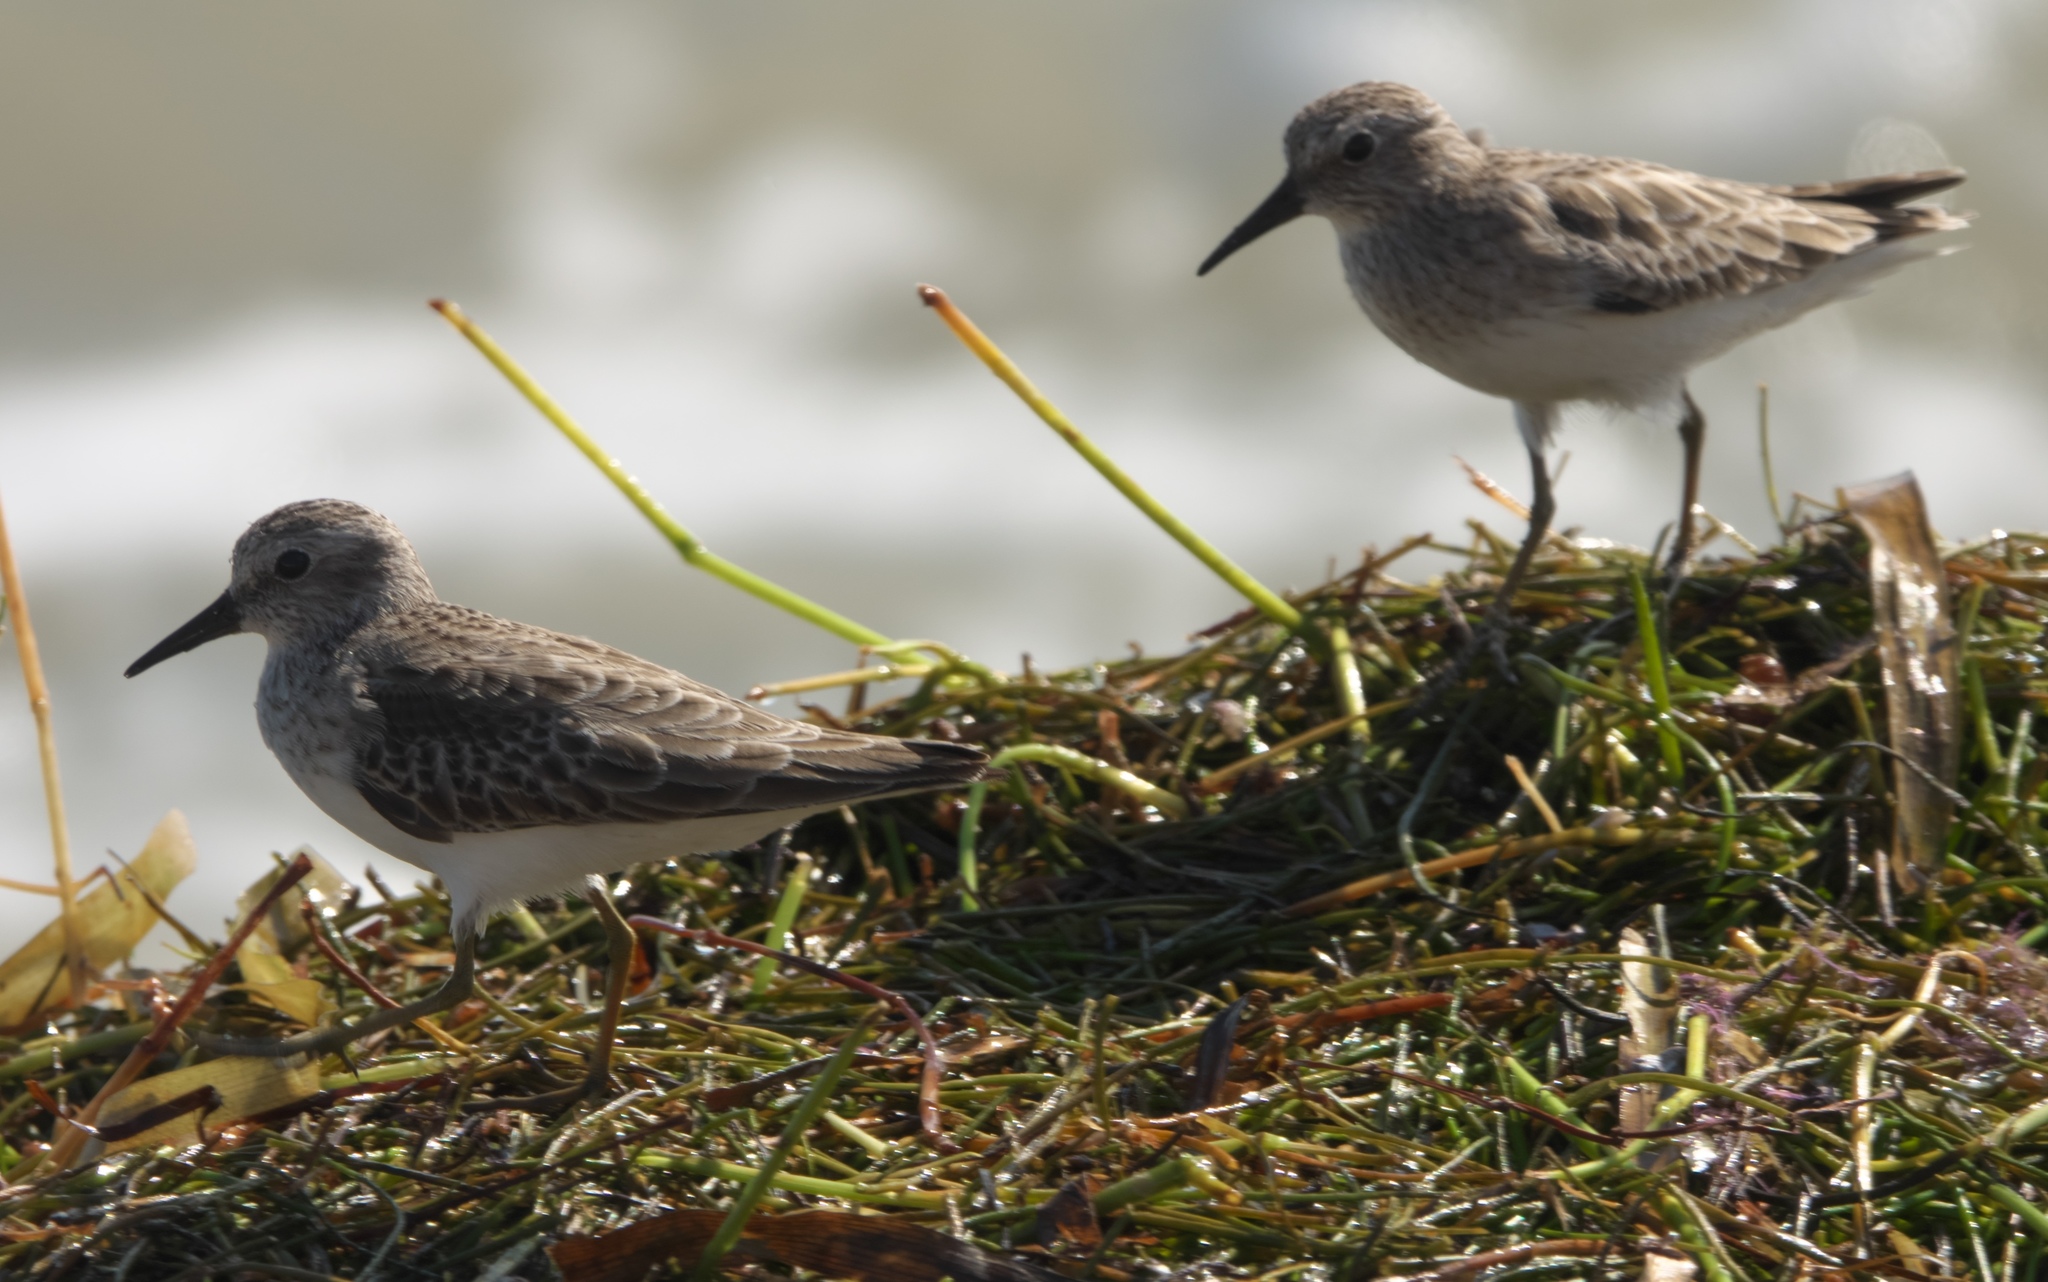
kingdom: Animalia
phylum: Chordata
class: Aves
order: Charadriiformes
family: Scolopacidae
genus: Calidris
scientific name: Calidris minutilla
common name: Least sandpiper
